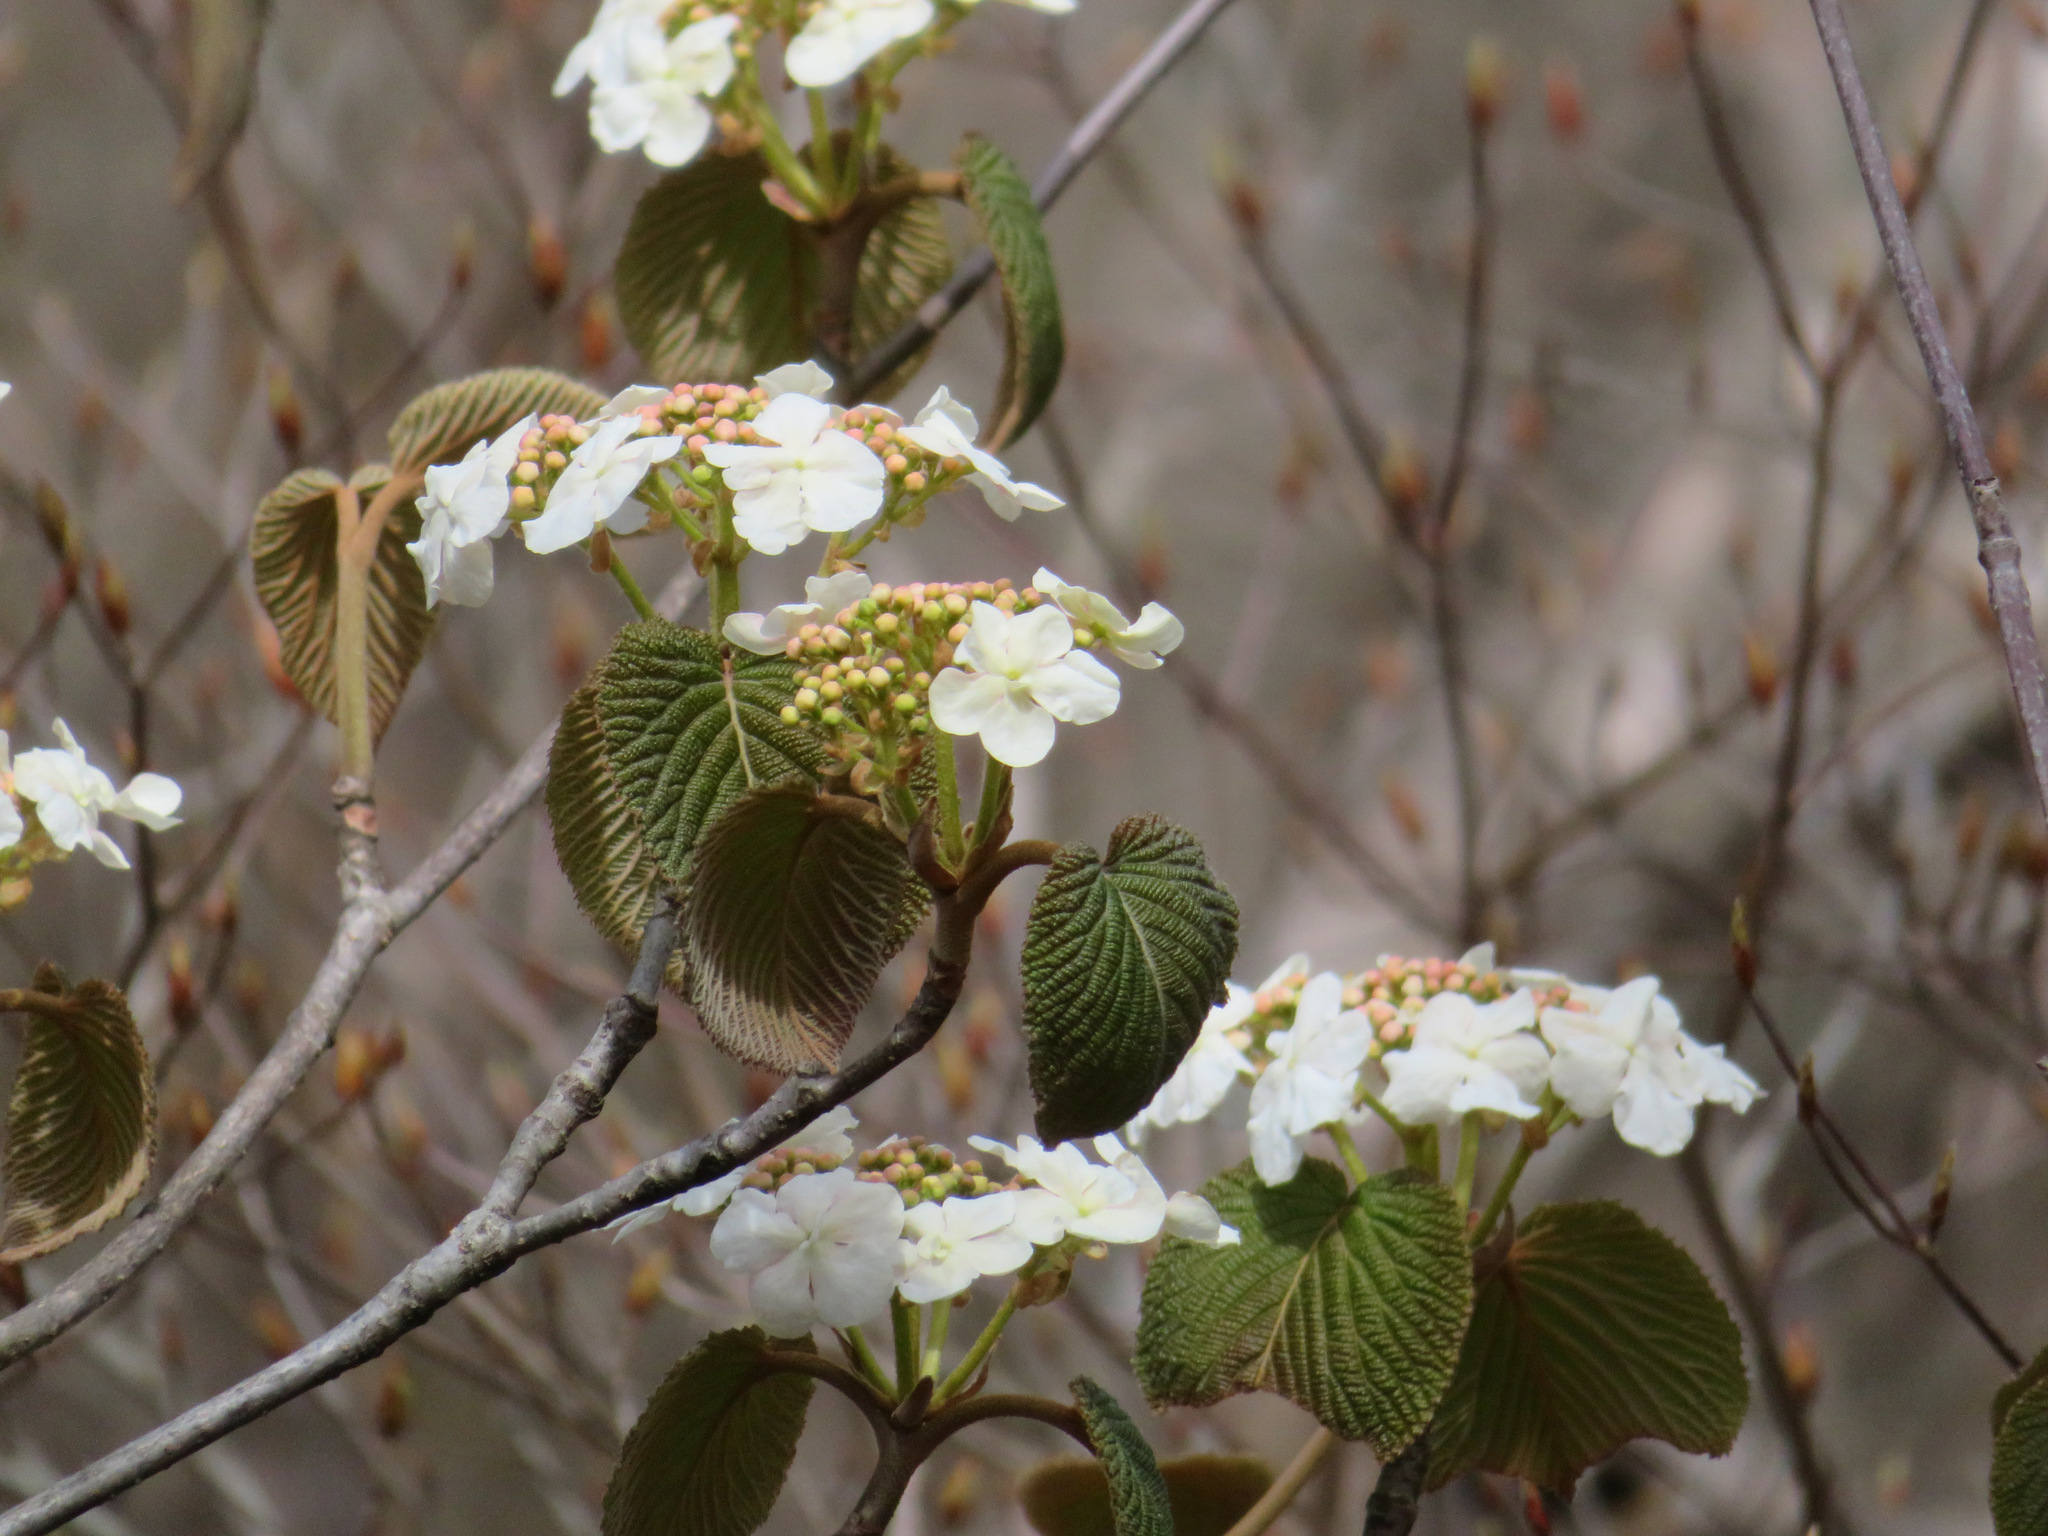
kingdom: Plantae
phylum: Tracheophyta
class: Magnoliopsida
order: Dipsacales
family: Viburnaceae
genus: Viburnum
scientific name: Viburnum furcatum
